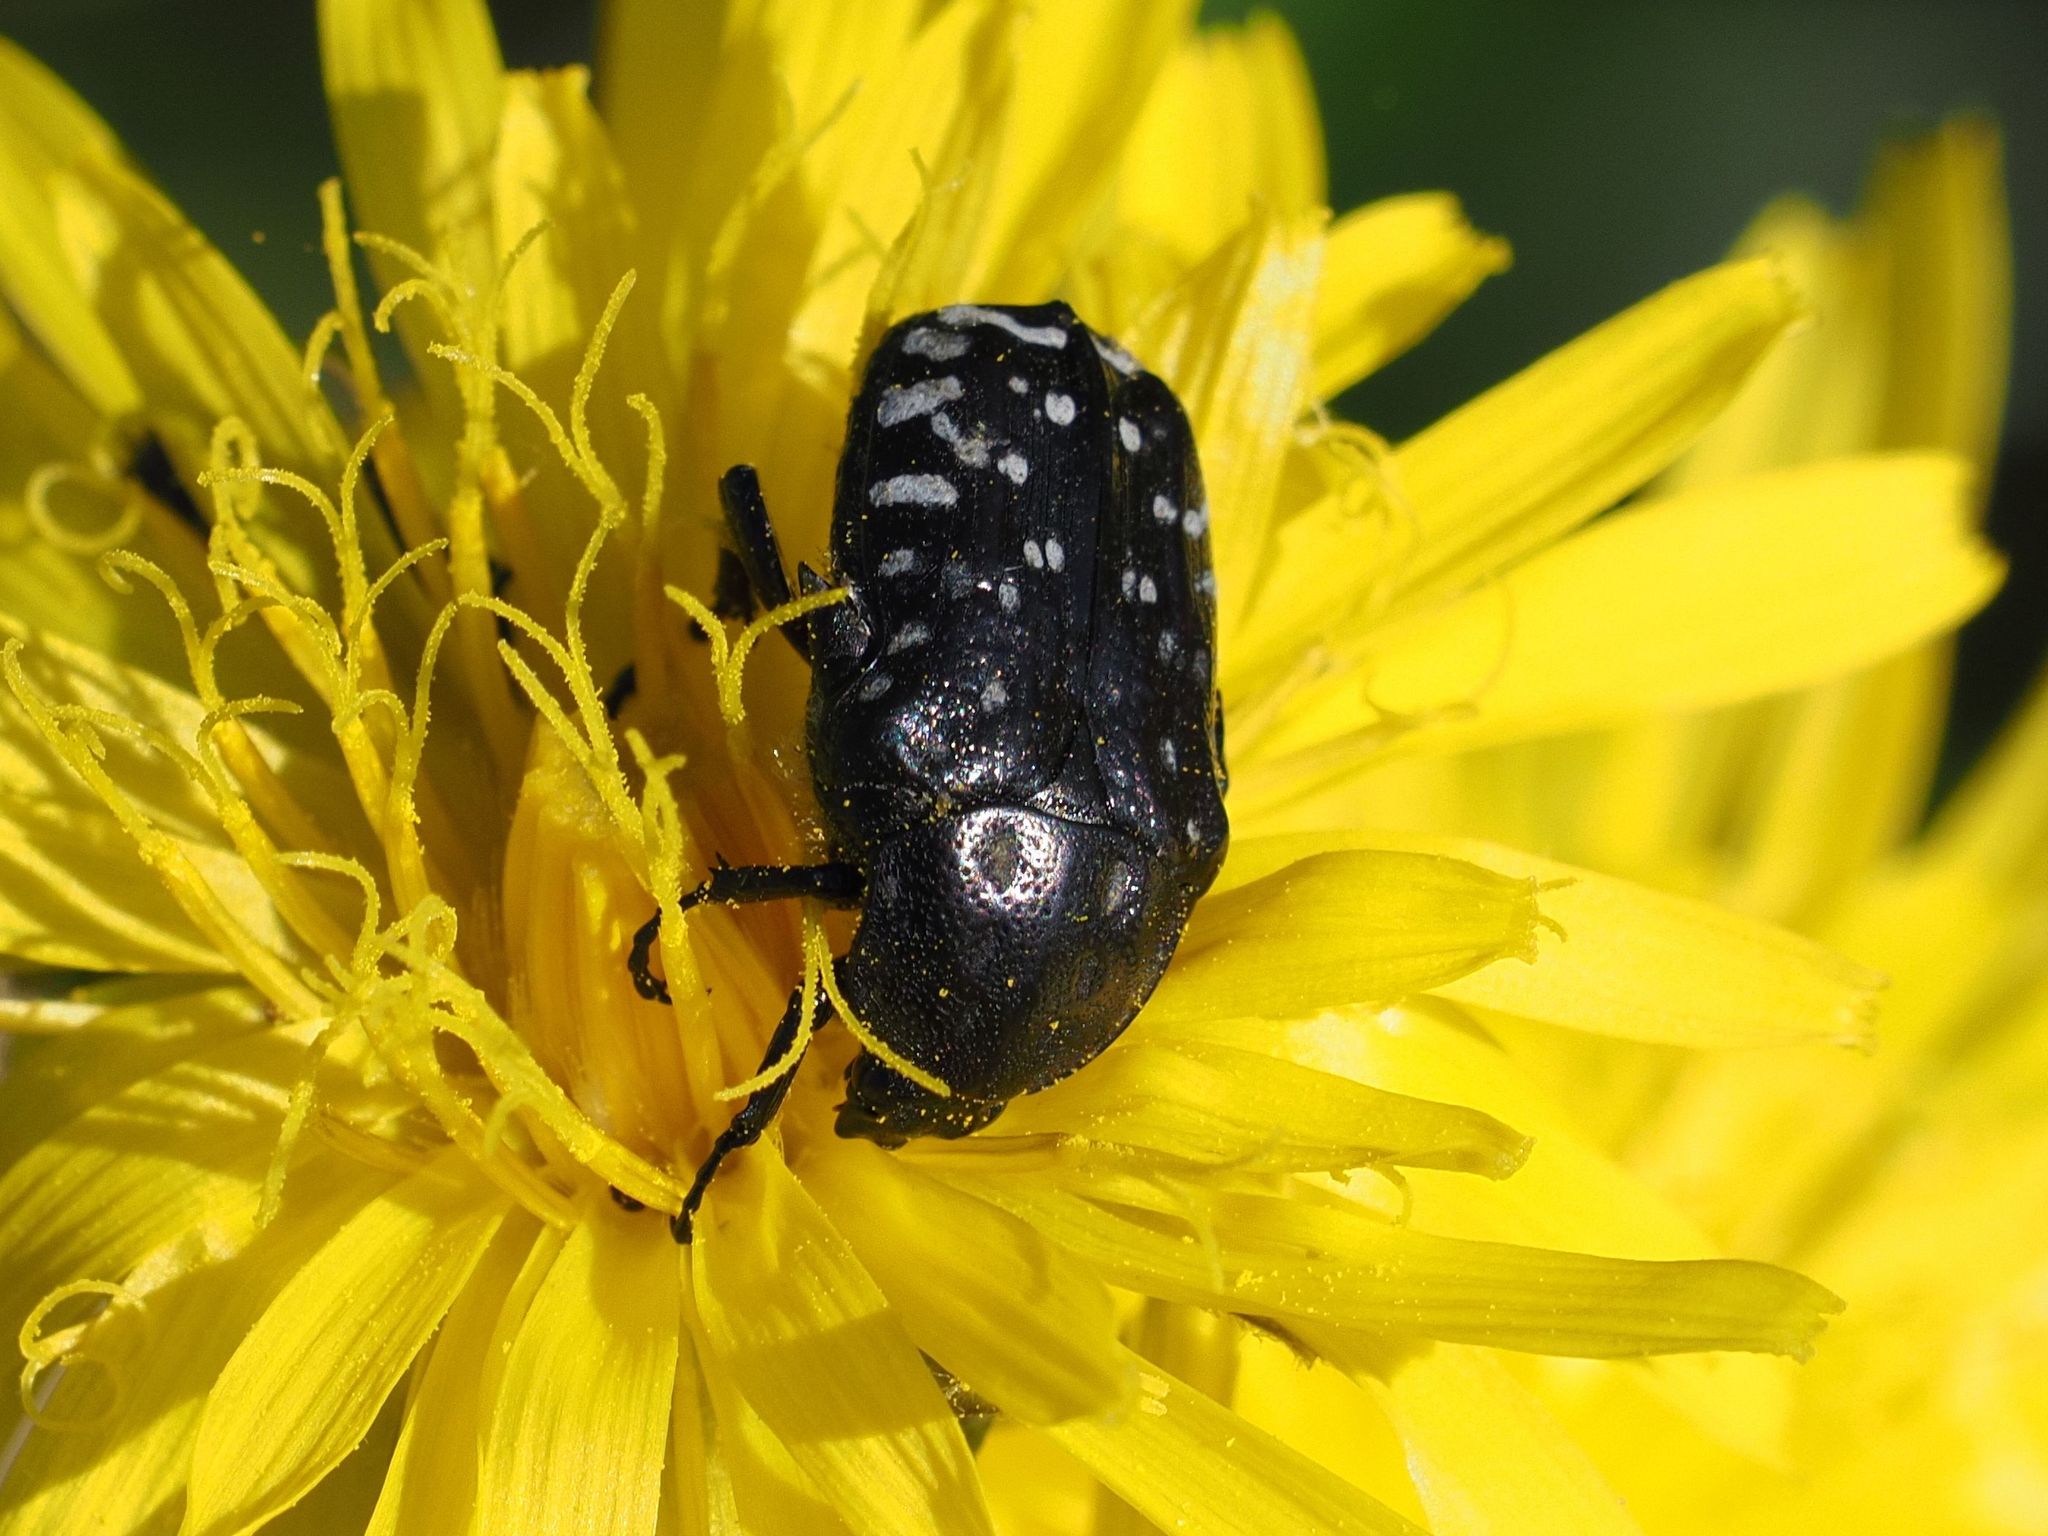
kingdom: Animalia
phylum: Arthropoda
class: Insecta
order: Coleoptera
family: Scarabaeidae
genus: Oxythyrea
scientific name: Oxythyrea funesta
